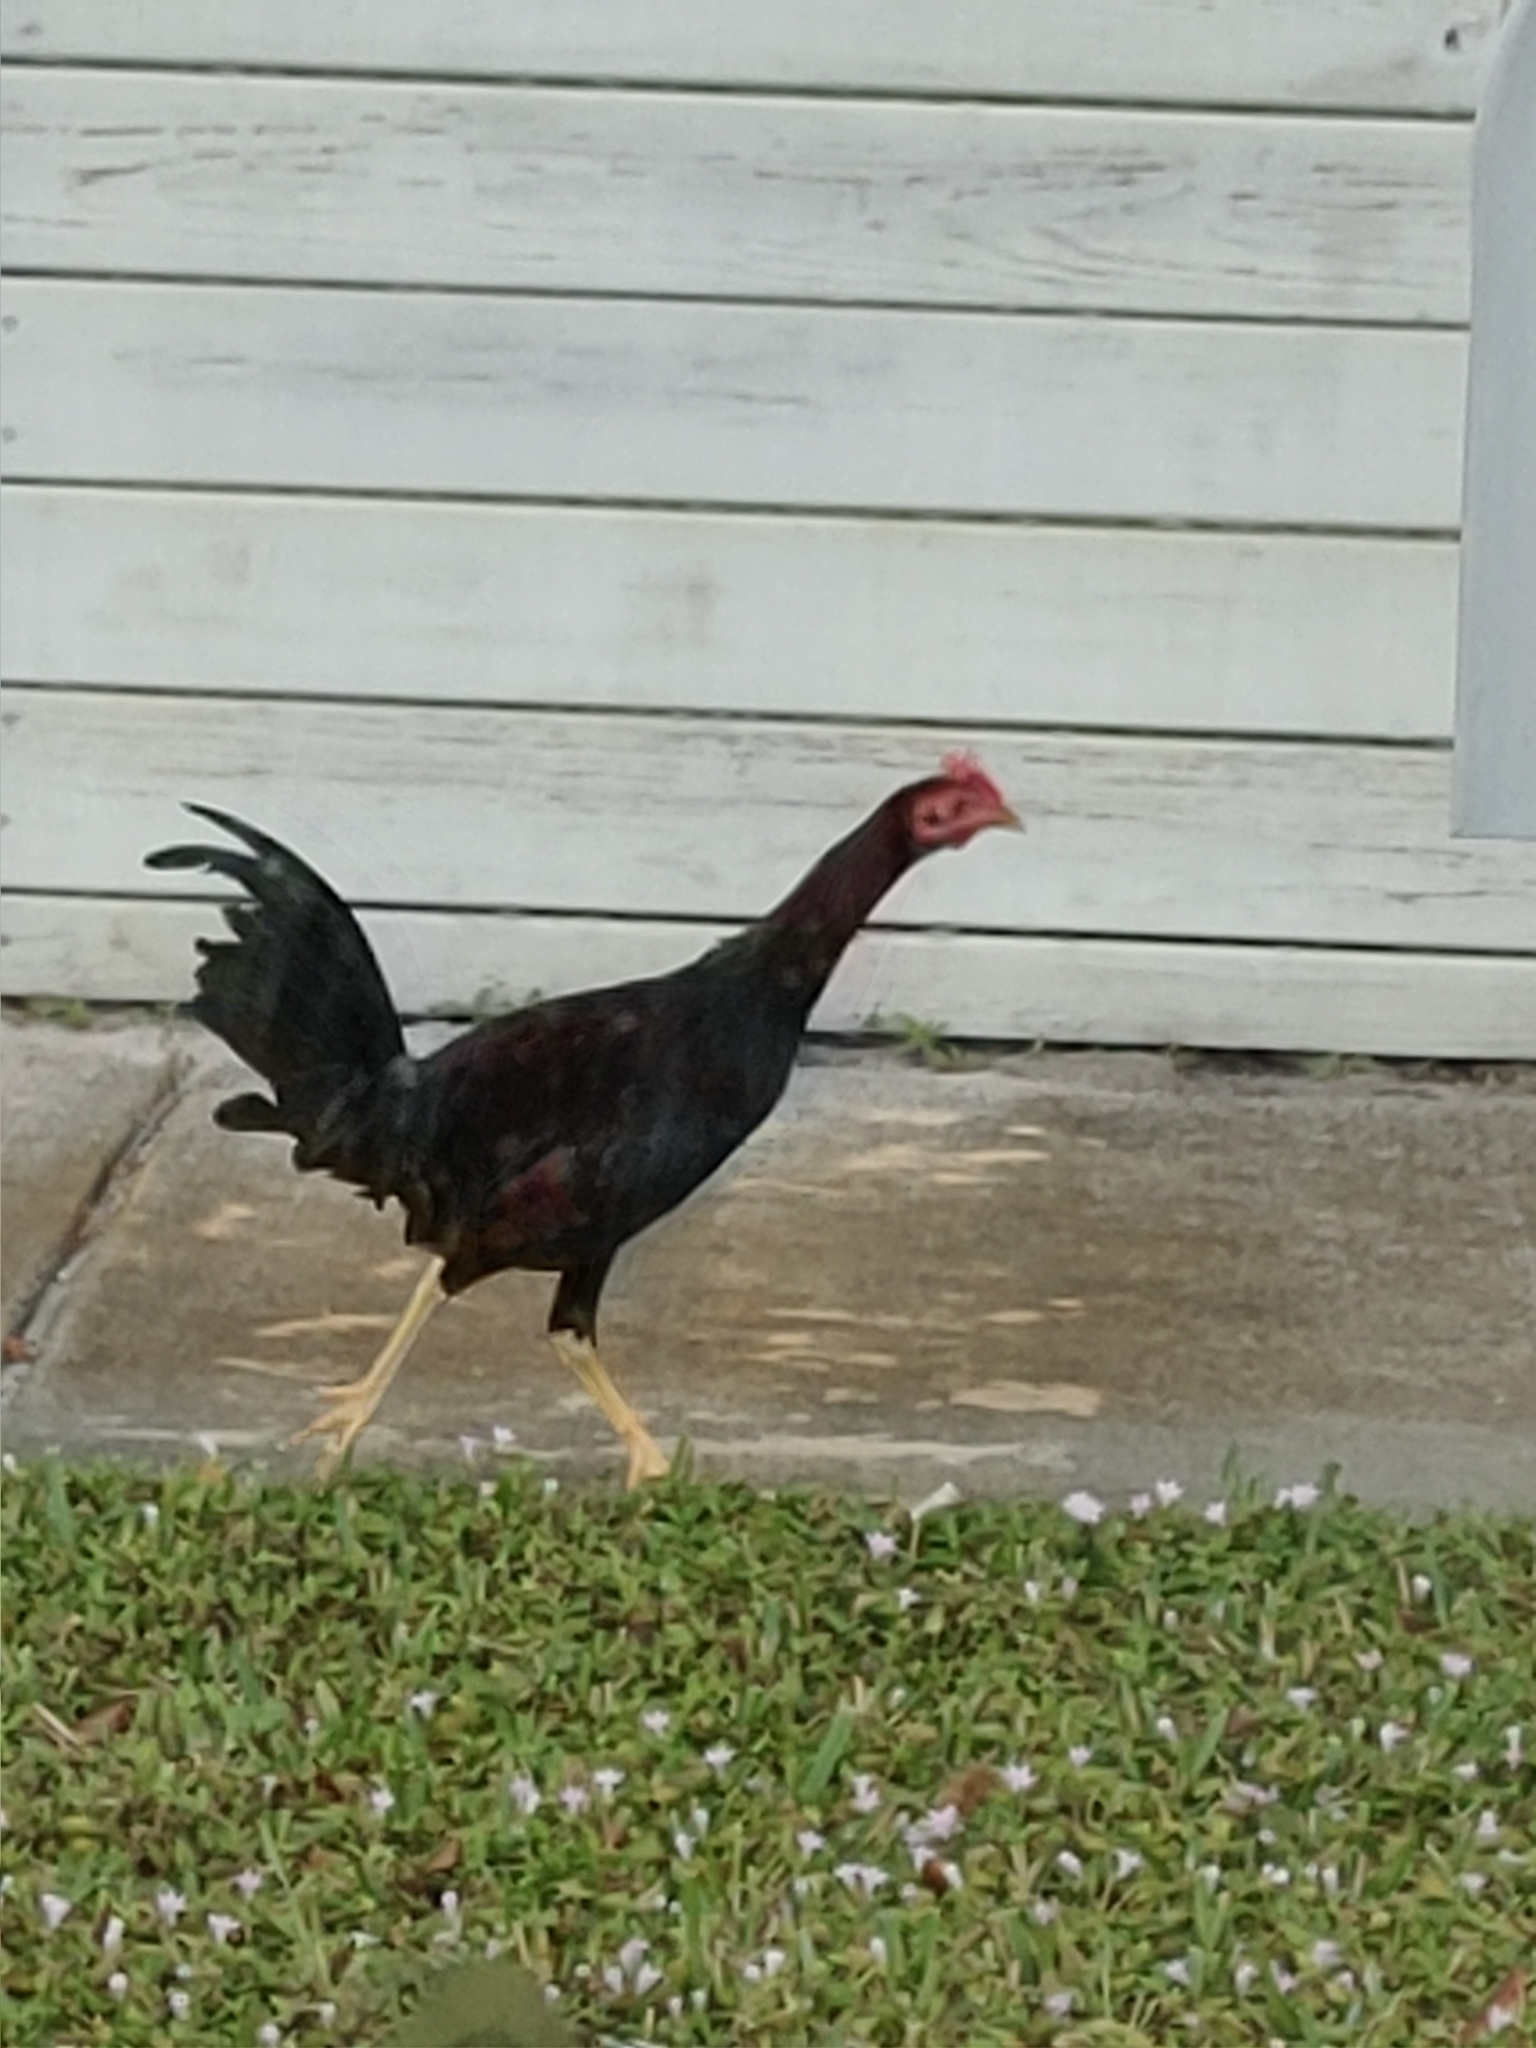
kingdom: Animalia
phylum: Chordata
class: Aves
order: Galliformes
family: Phasianidae
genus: Gallus
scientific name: Gallus gallus
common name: Red junglefowl
